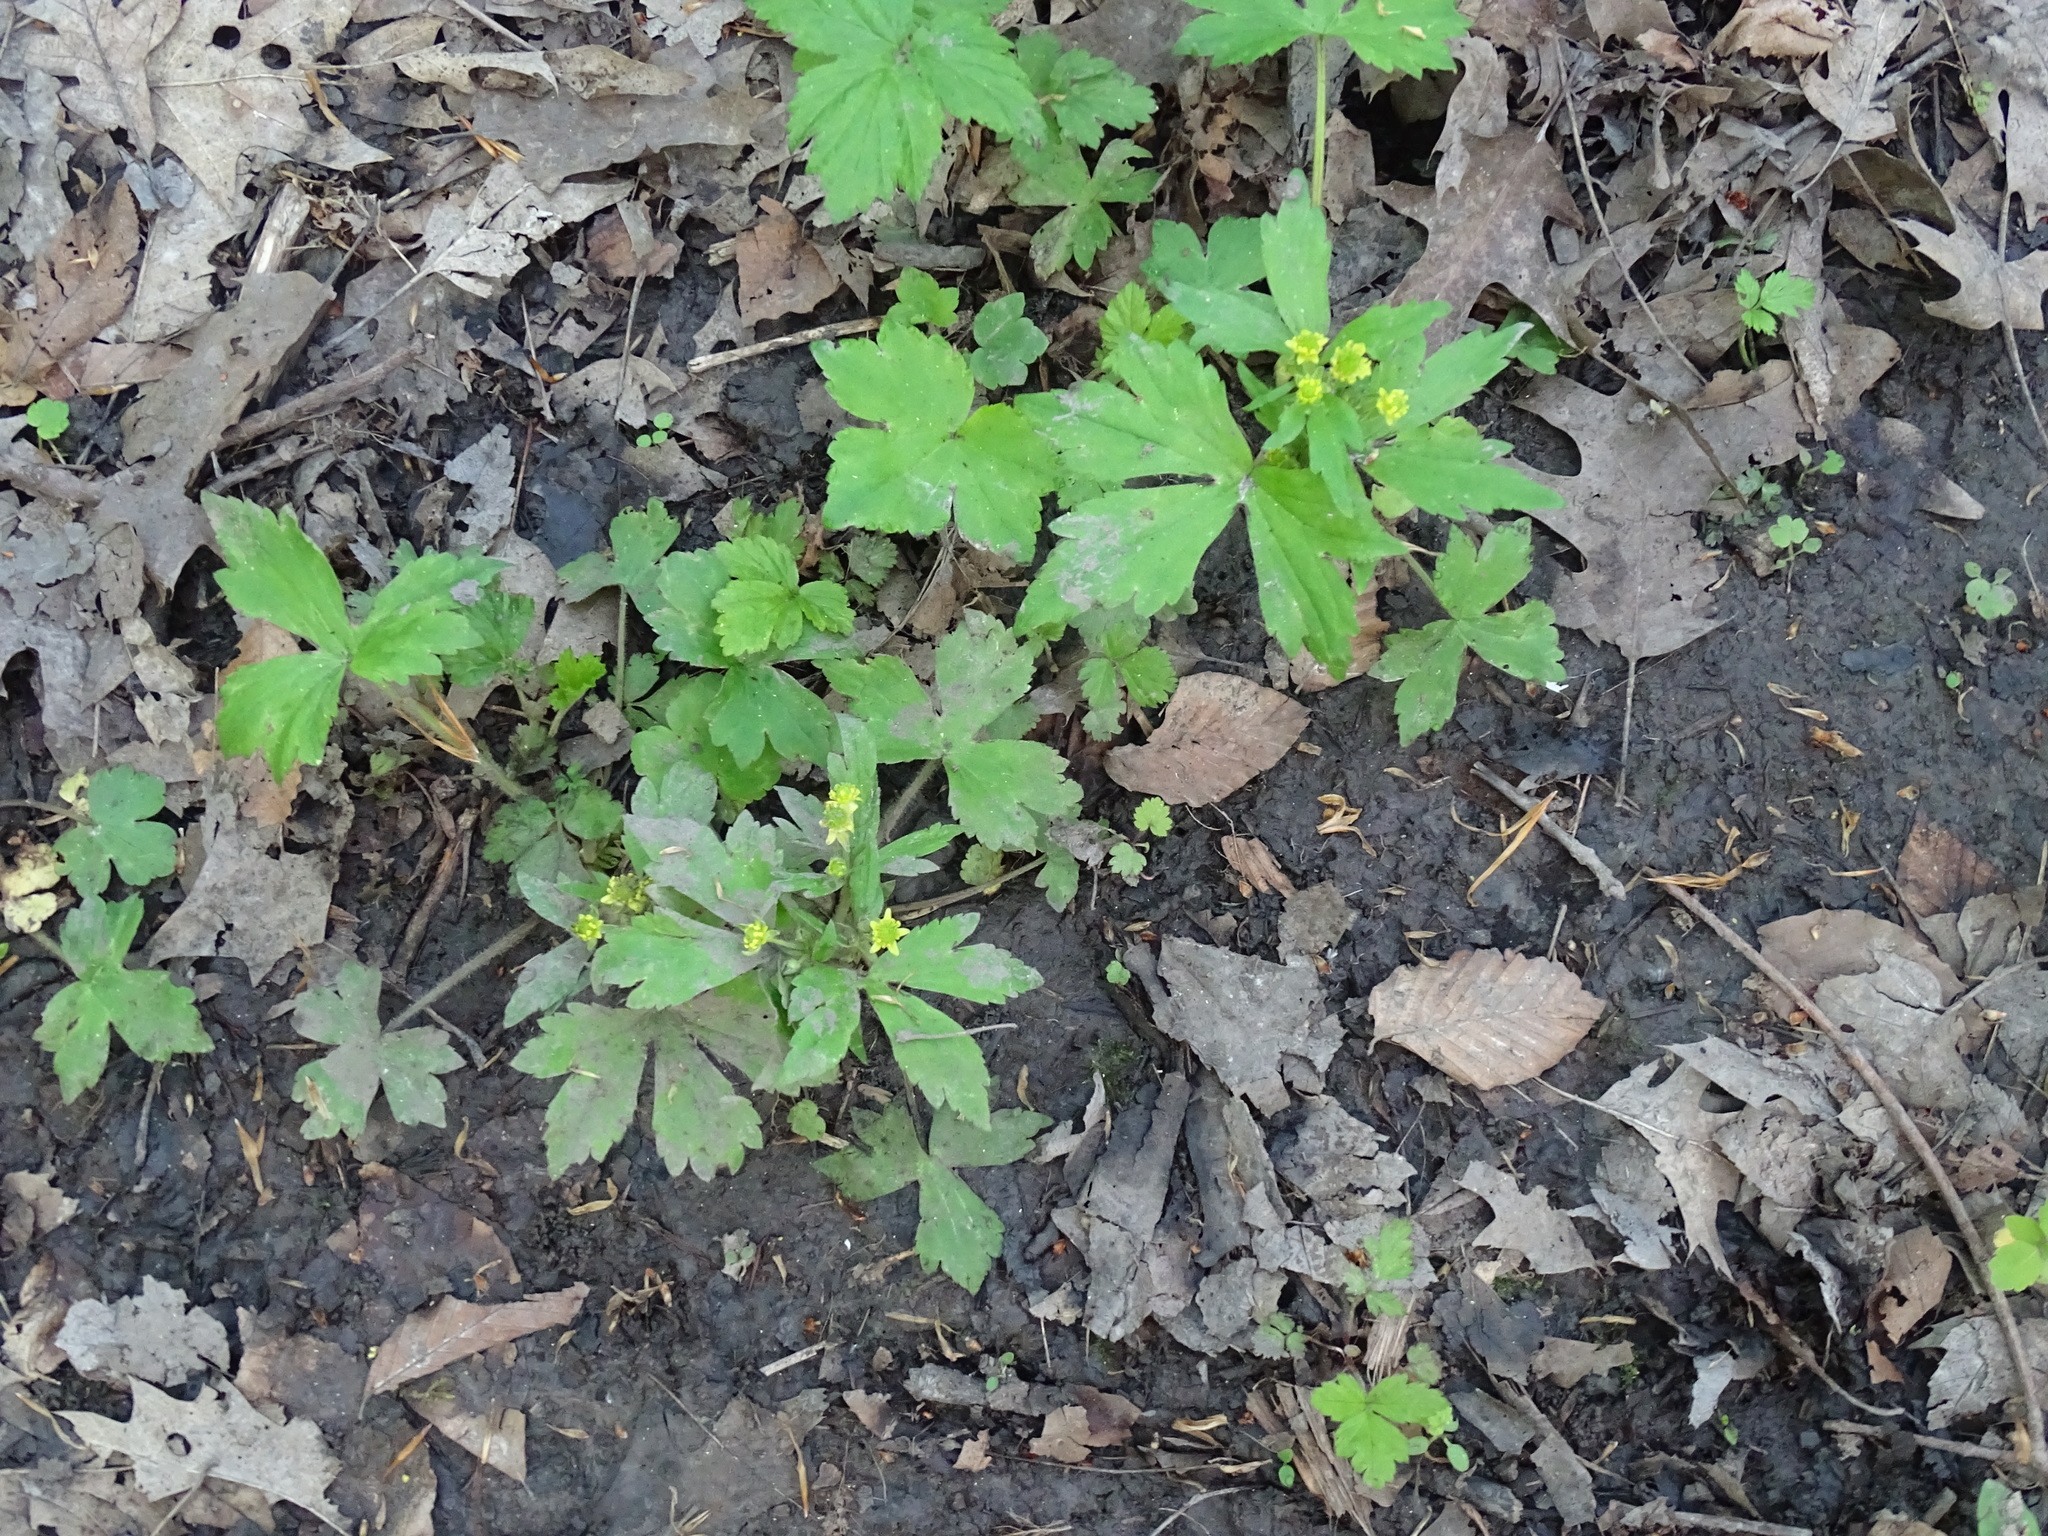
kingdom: Plantae
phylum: Tracheophyta
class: Magnoliopsida
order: Ranunculales
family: Ranunculaceae
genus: Ranunculus
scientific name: Ranunculus recurvatus
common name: Blisterwort
